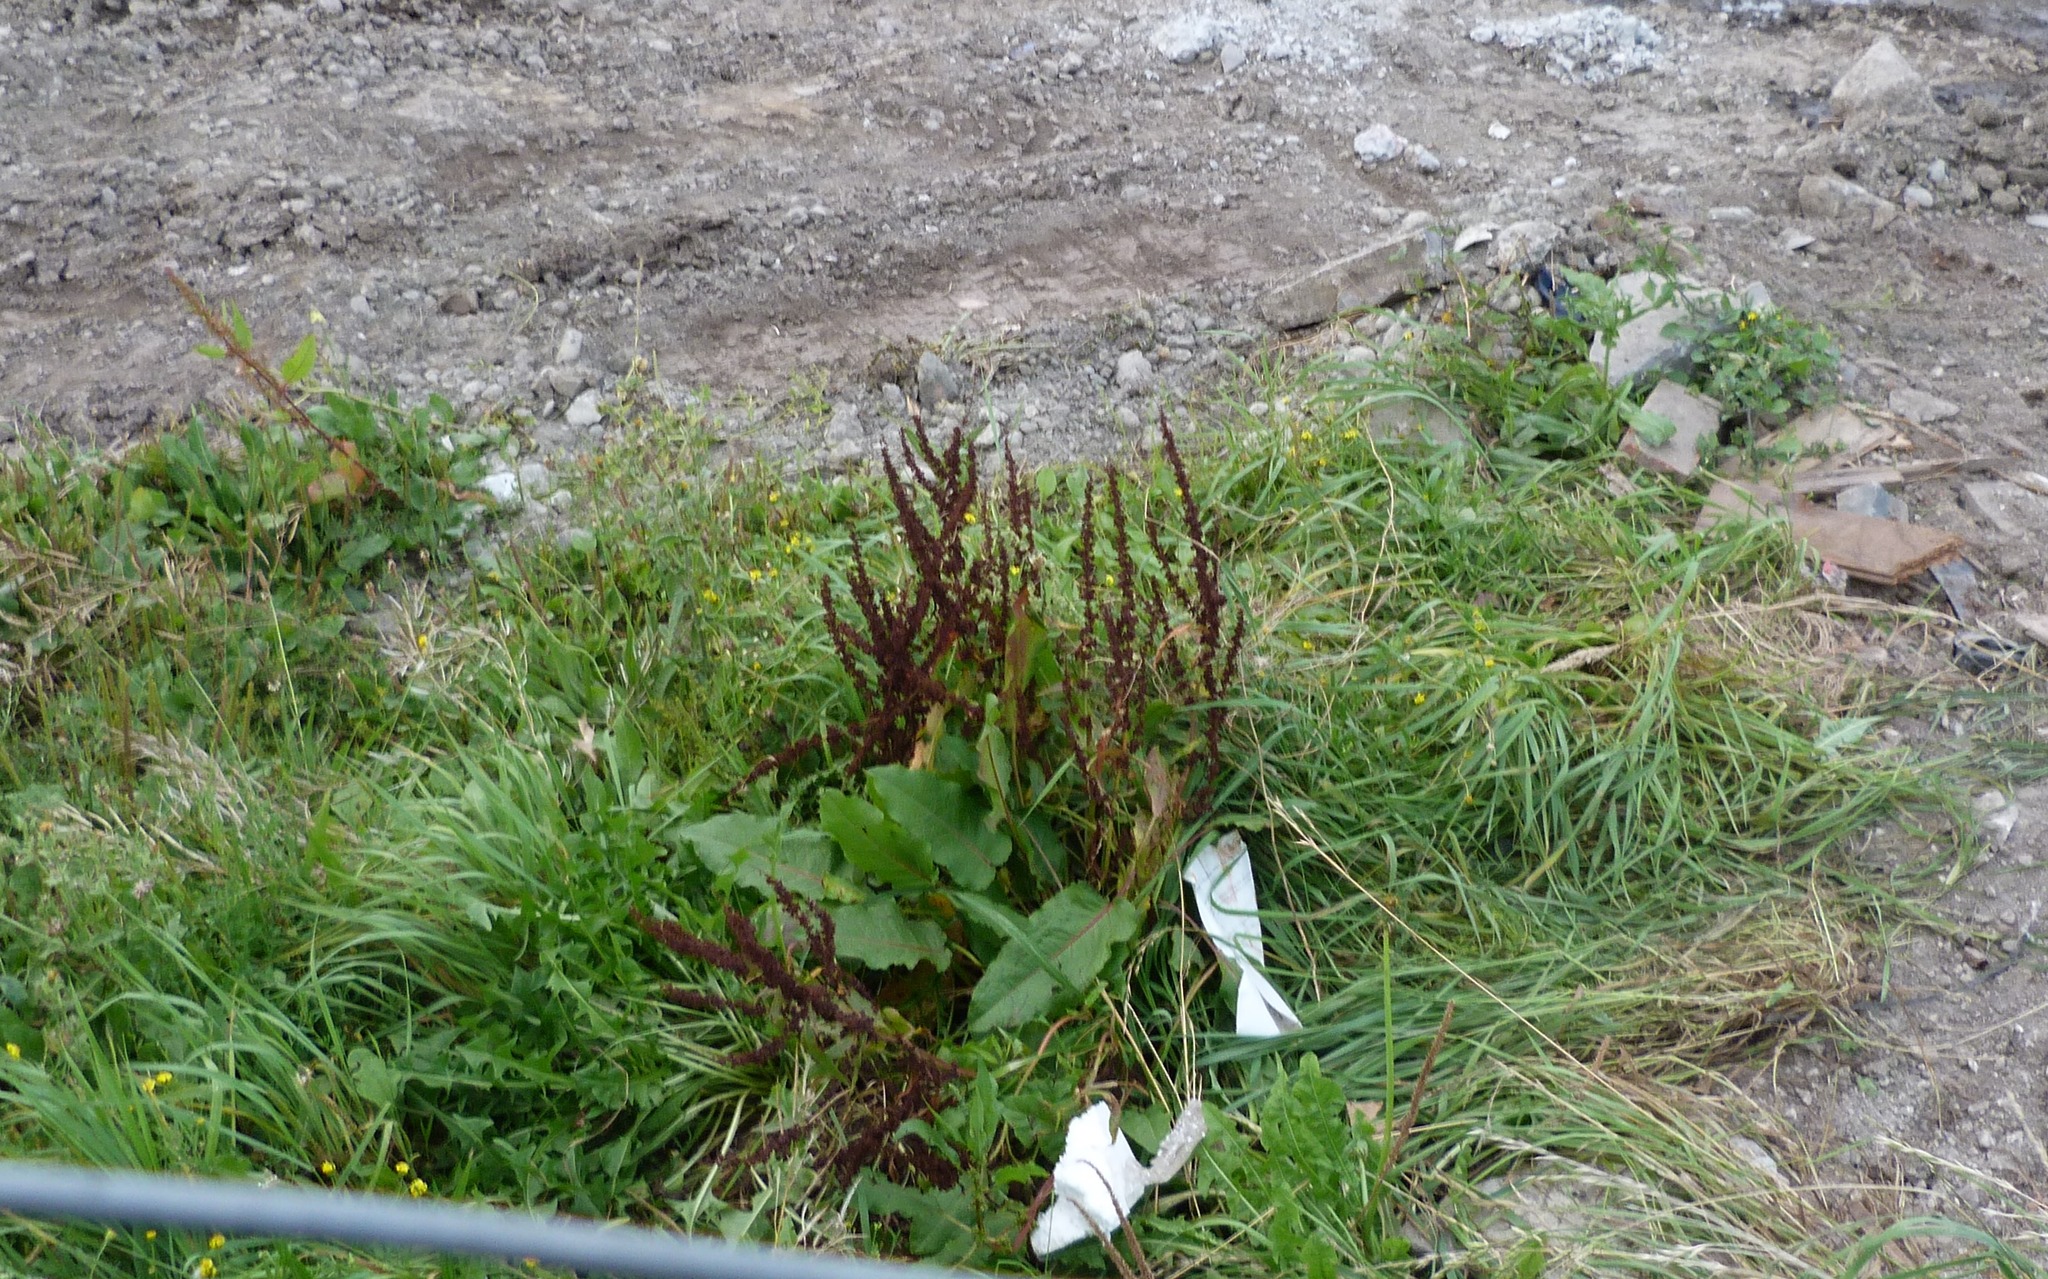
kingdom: Plantae
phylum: Tracheophyta
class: Magnoliopsida
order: Caryophyllales
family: Polygonaceae
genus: Rumex
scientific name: Rumex obtusifolius
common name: Bitter dock
